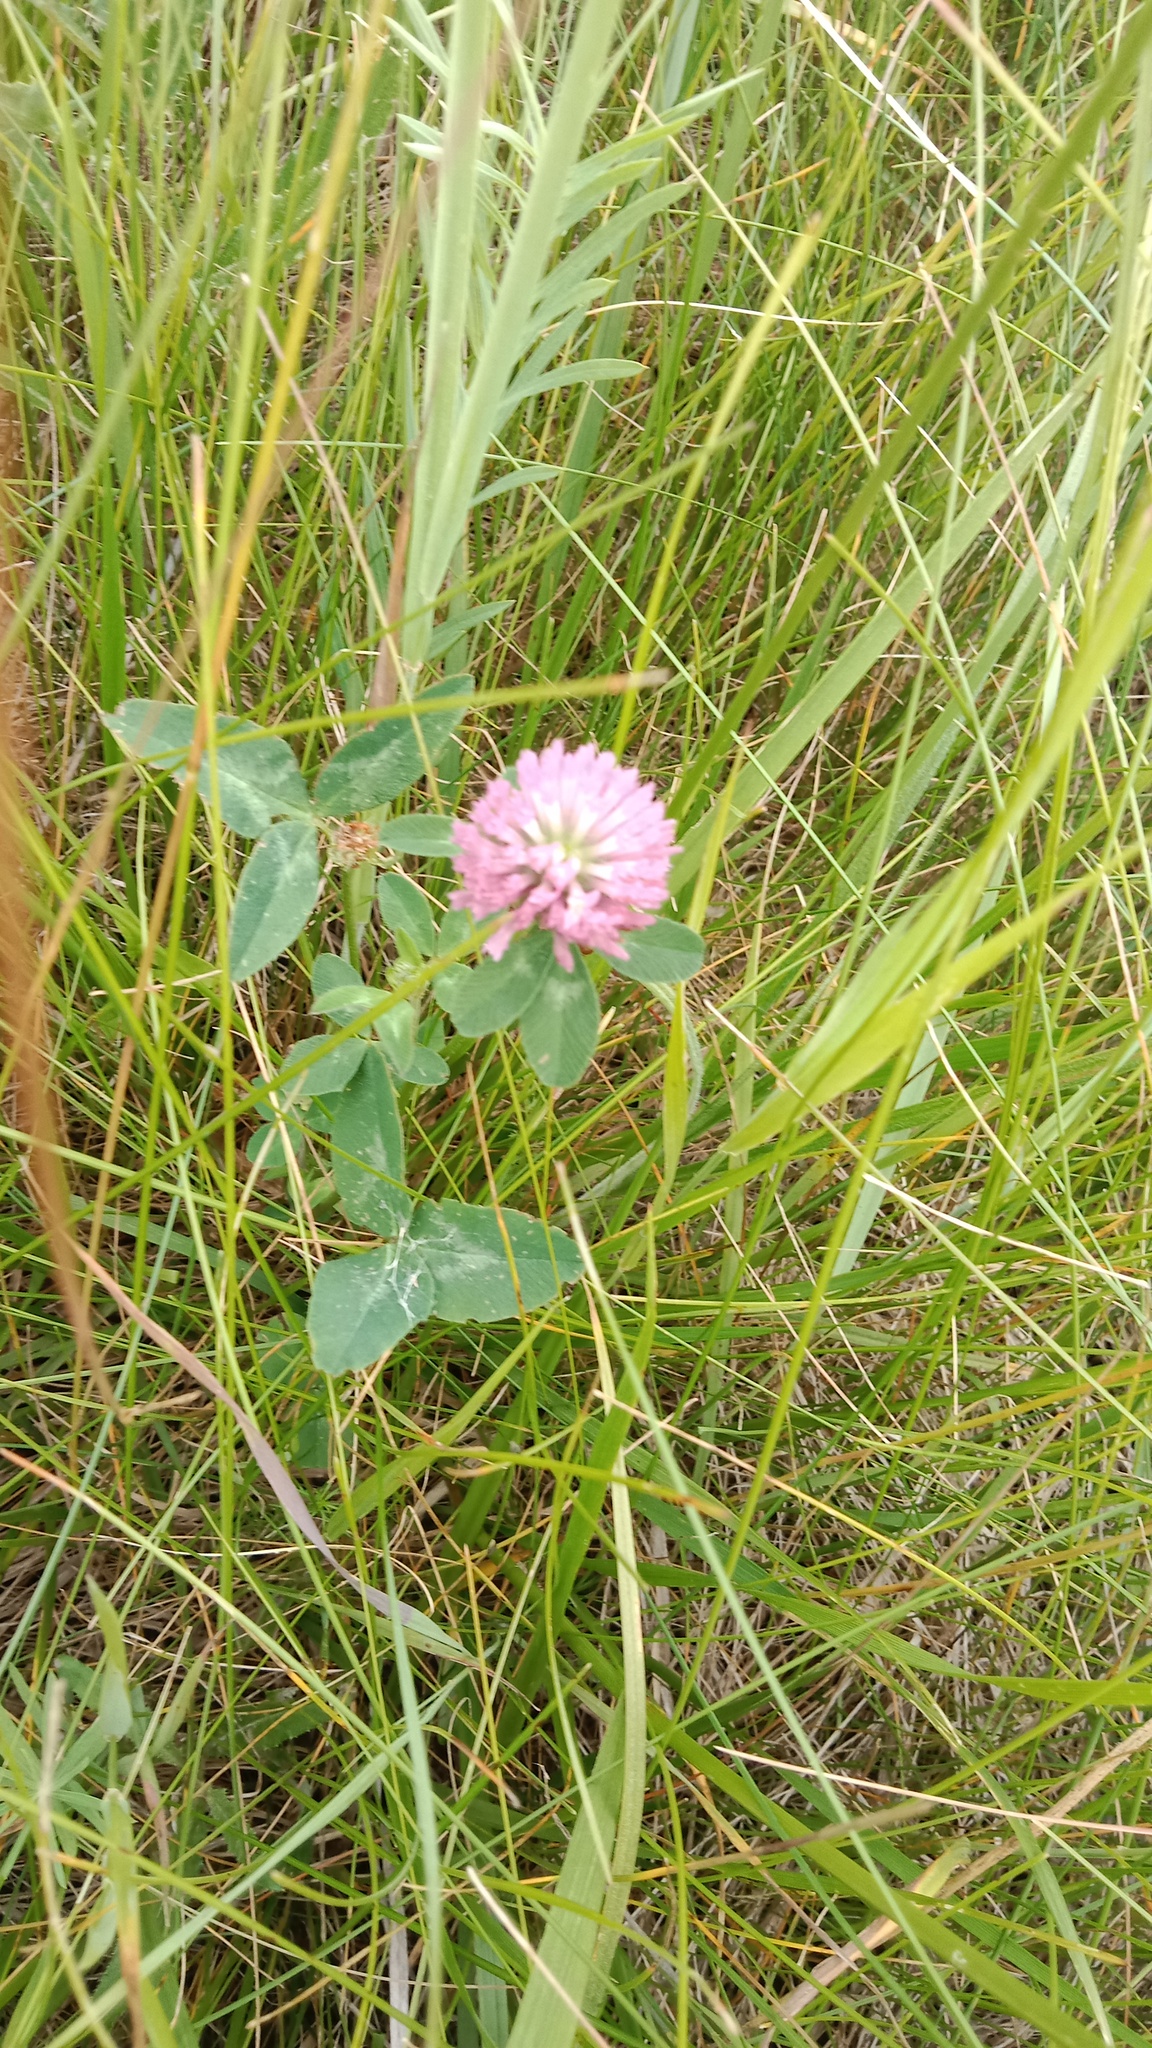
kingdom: Plantae
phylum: Tracheophyta
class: Magnoliopsida
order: Fabales
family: Fabaceae
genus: Trifolium
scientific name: Trifolium pratense
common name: Red clover
